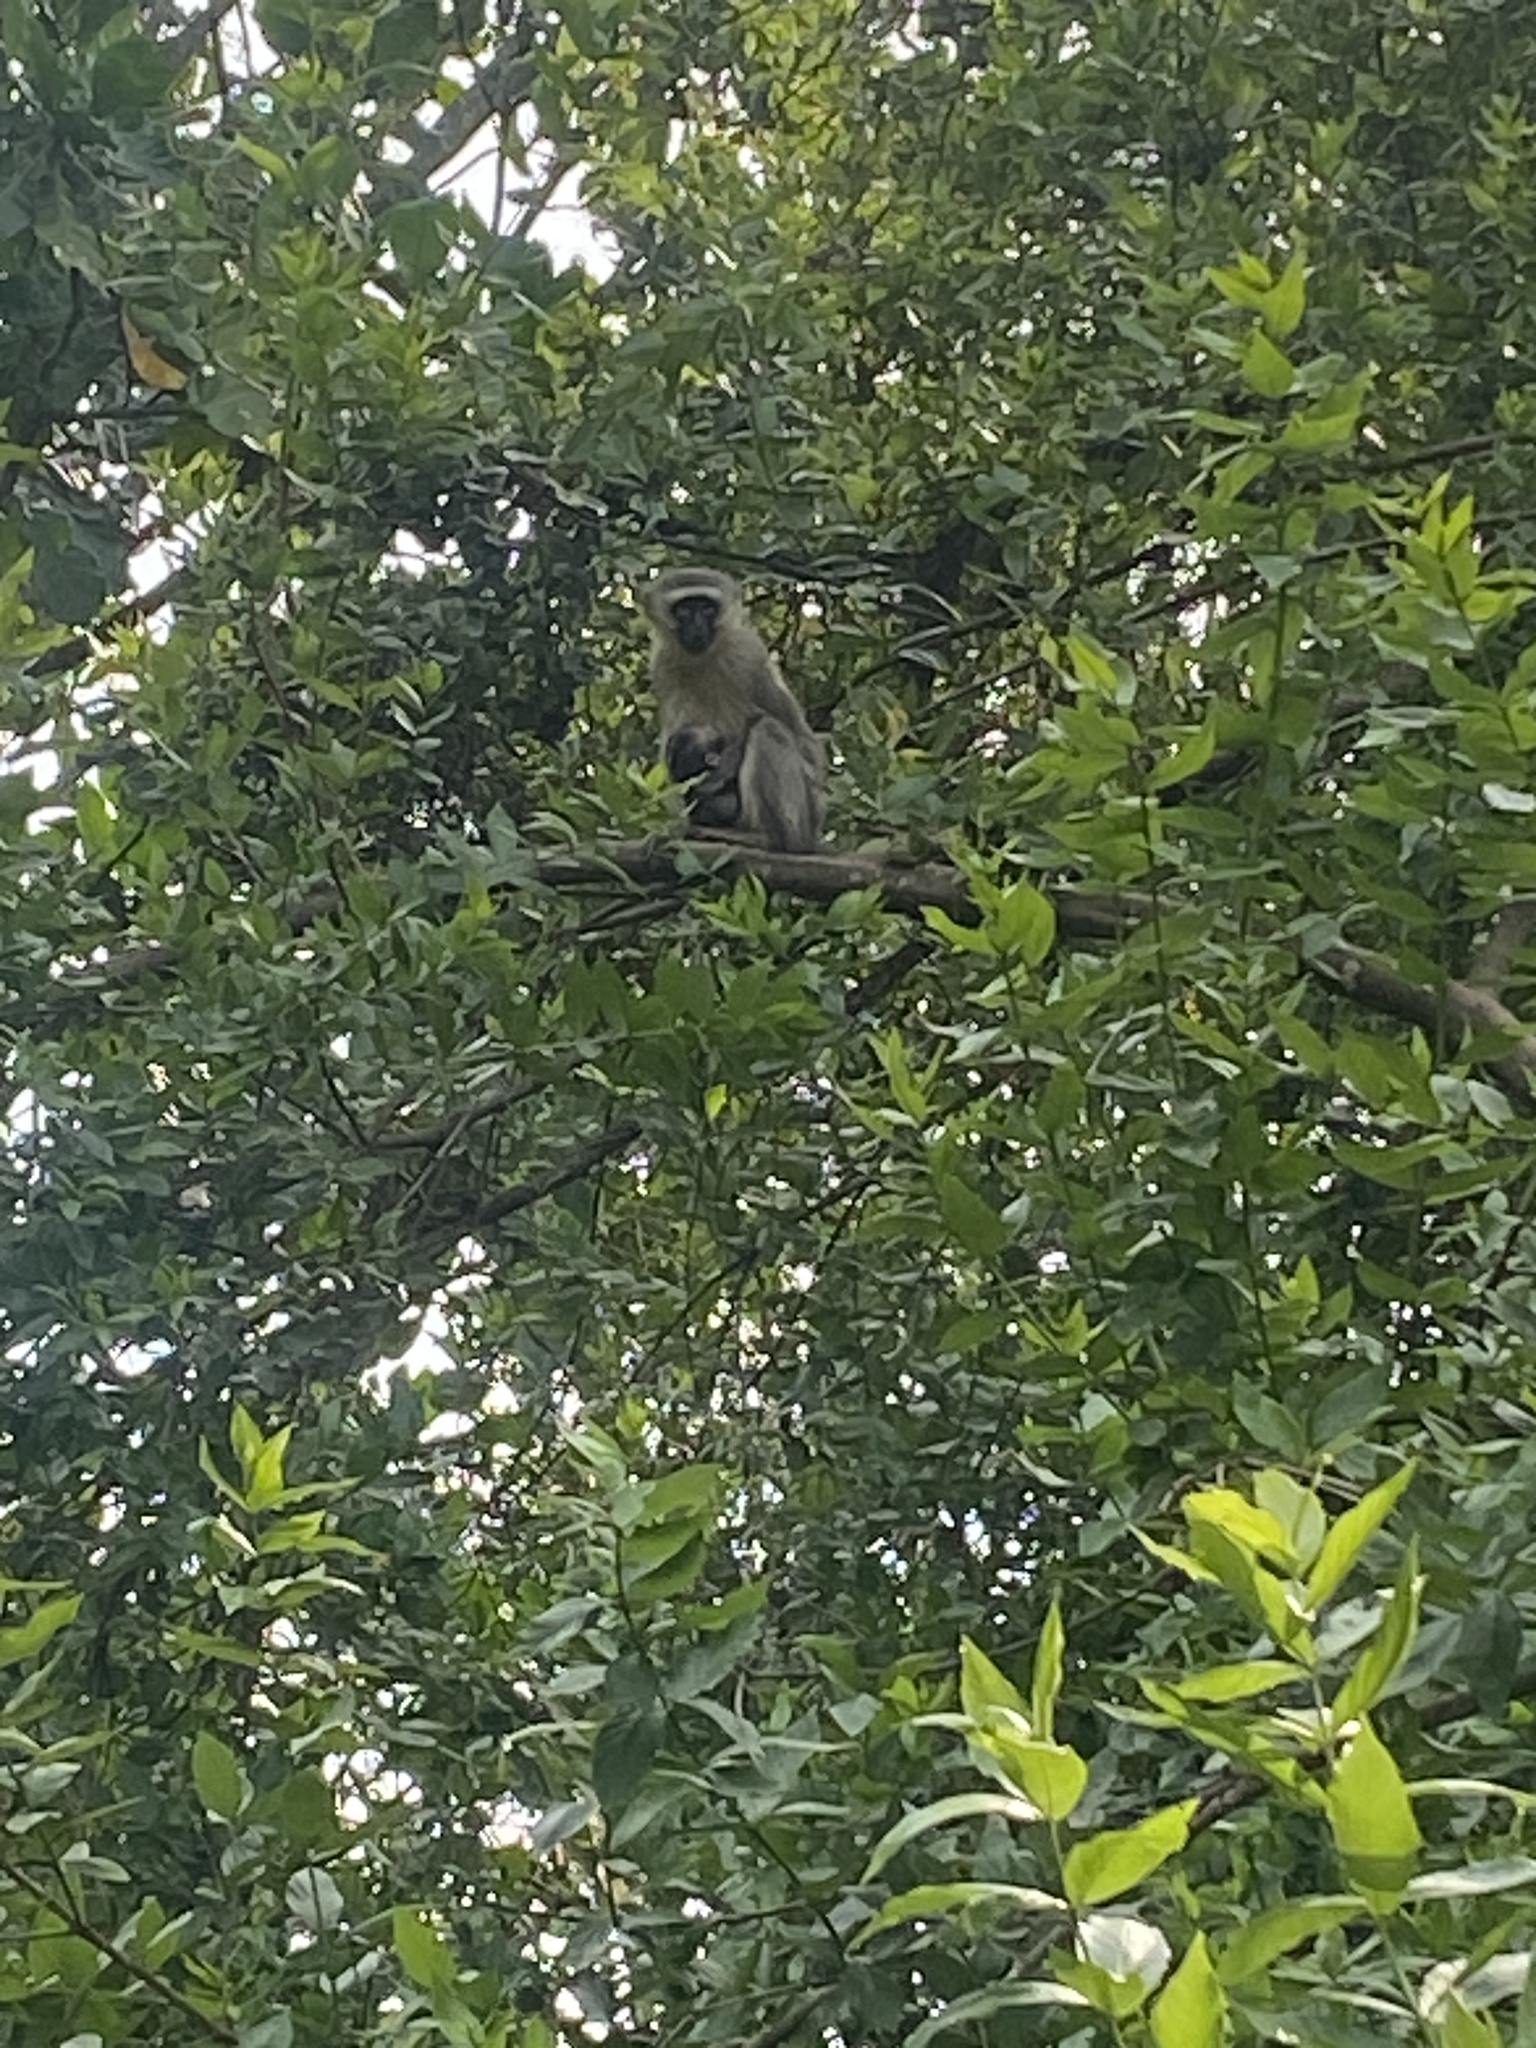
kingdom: Animalia
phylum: Chordata
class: Mammalia
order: Primates
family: Cercopithecidae
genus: Chlorocebus
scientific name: Chlorocebus pygerythrus
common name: Vervet monkey
